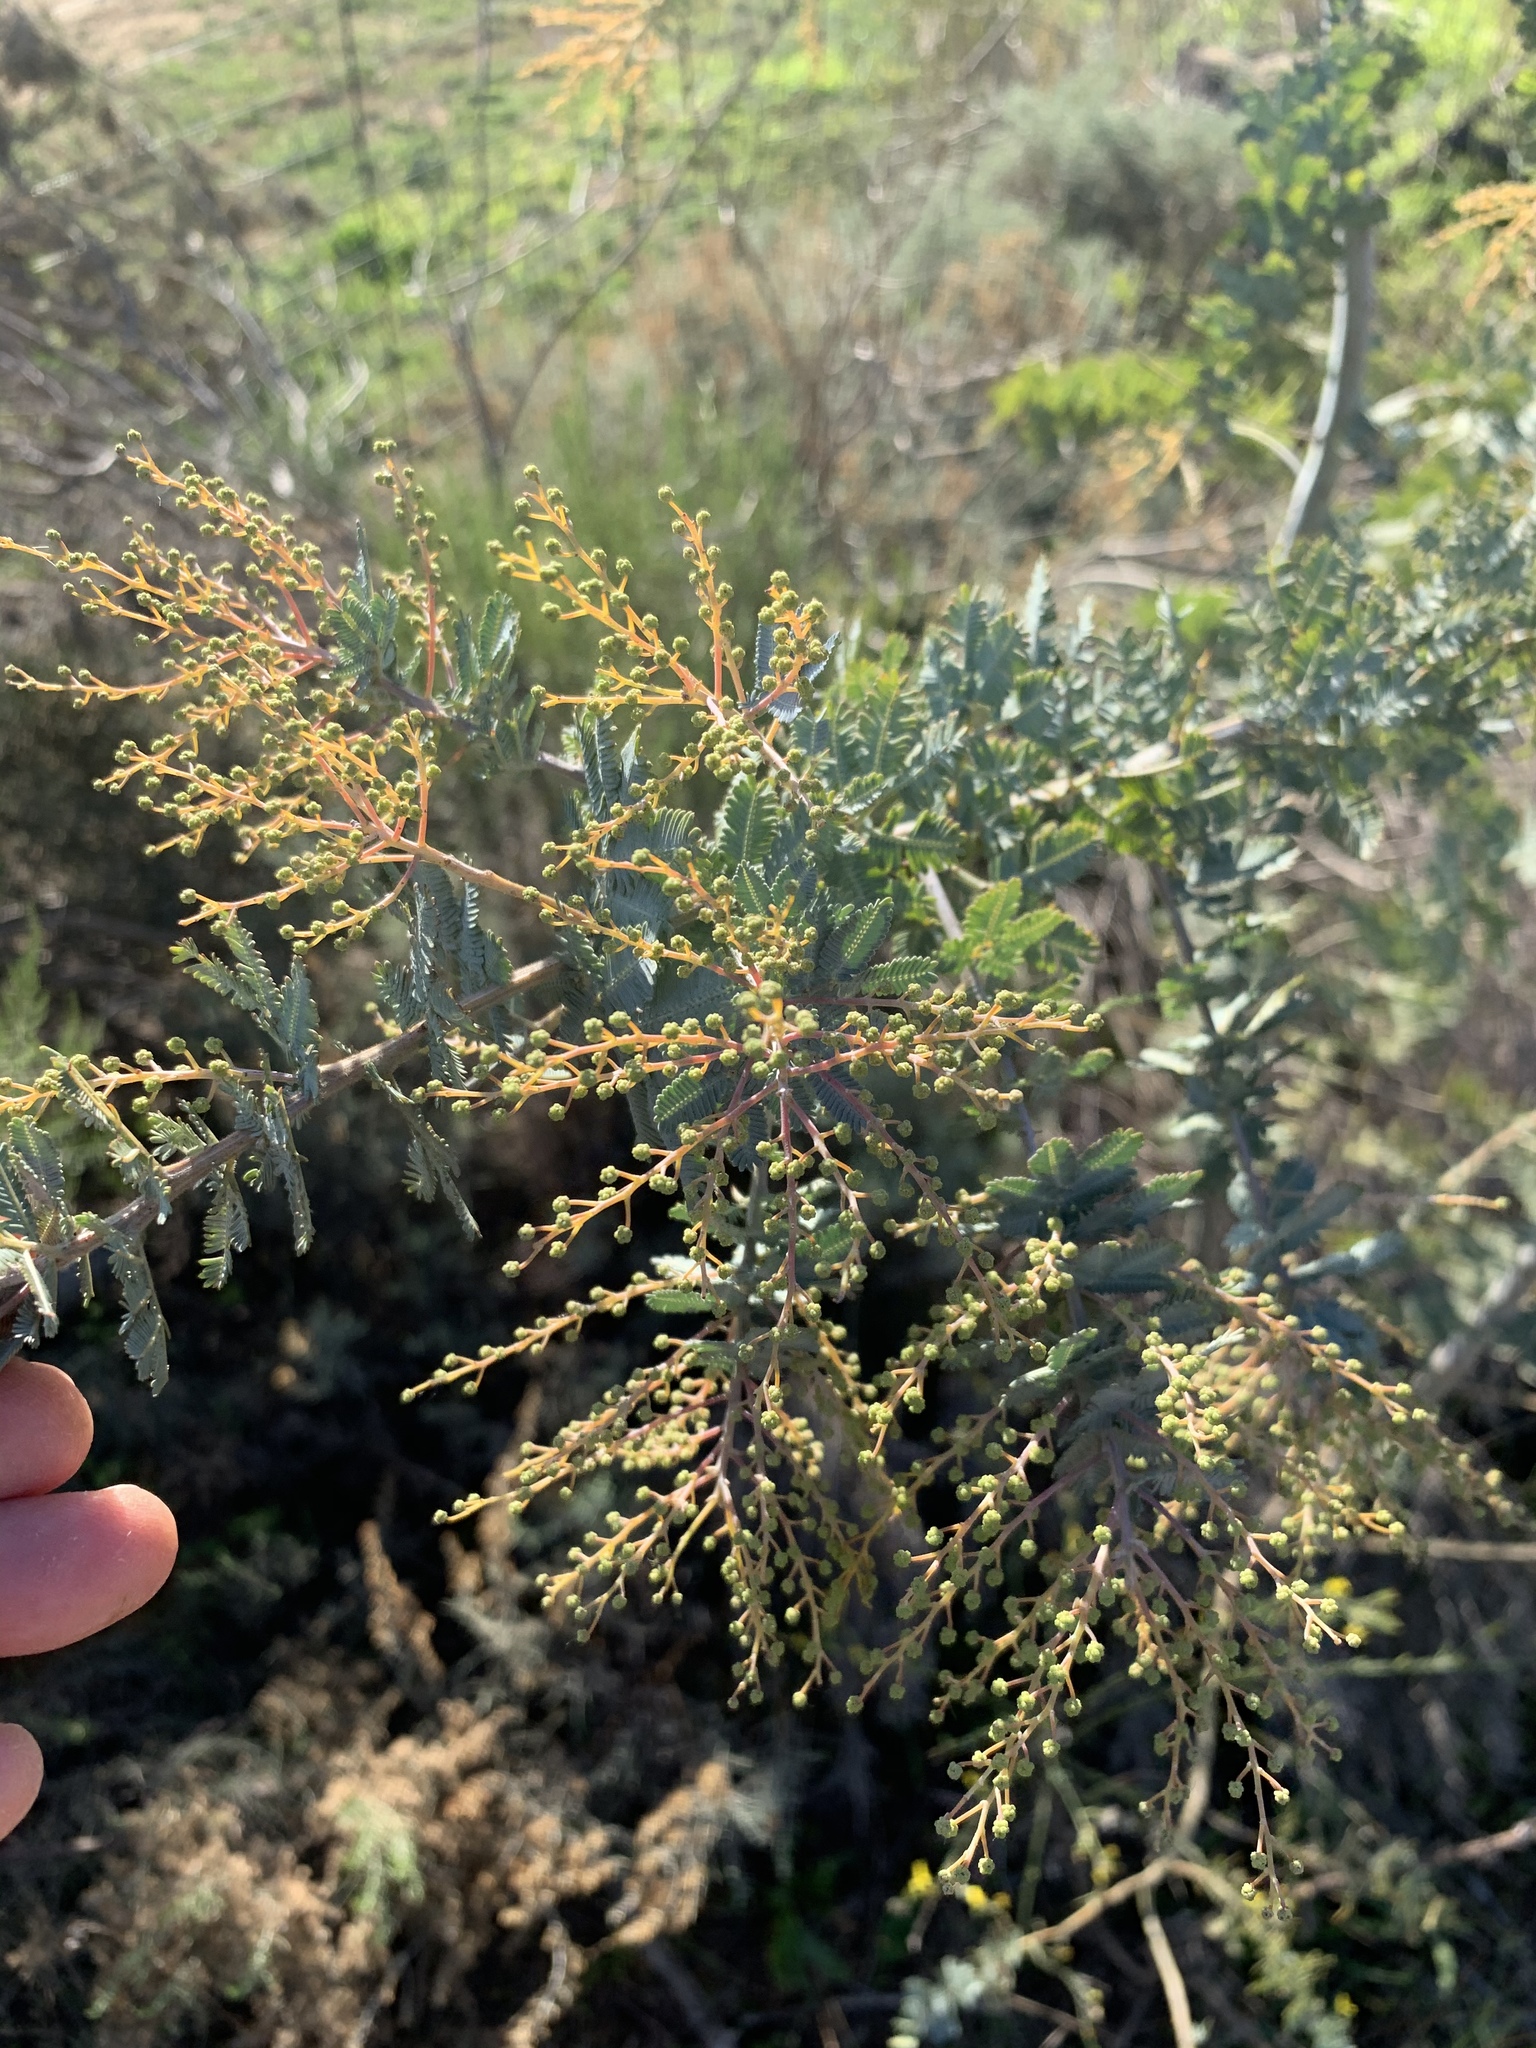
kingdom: Plantae
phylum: Tracheophyta
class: Magnoliopsida
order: Fabales
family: Fabaceae
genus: Acacia
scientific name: Acacia baileyana
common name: Cootamundra wattle
